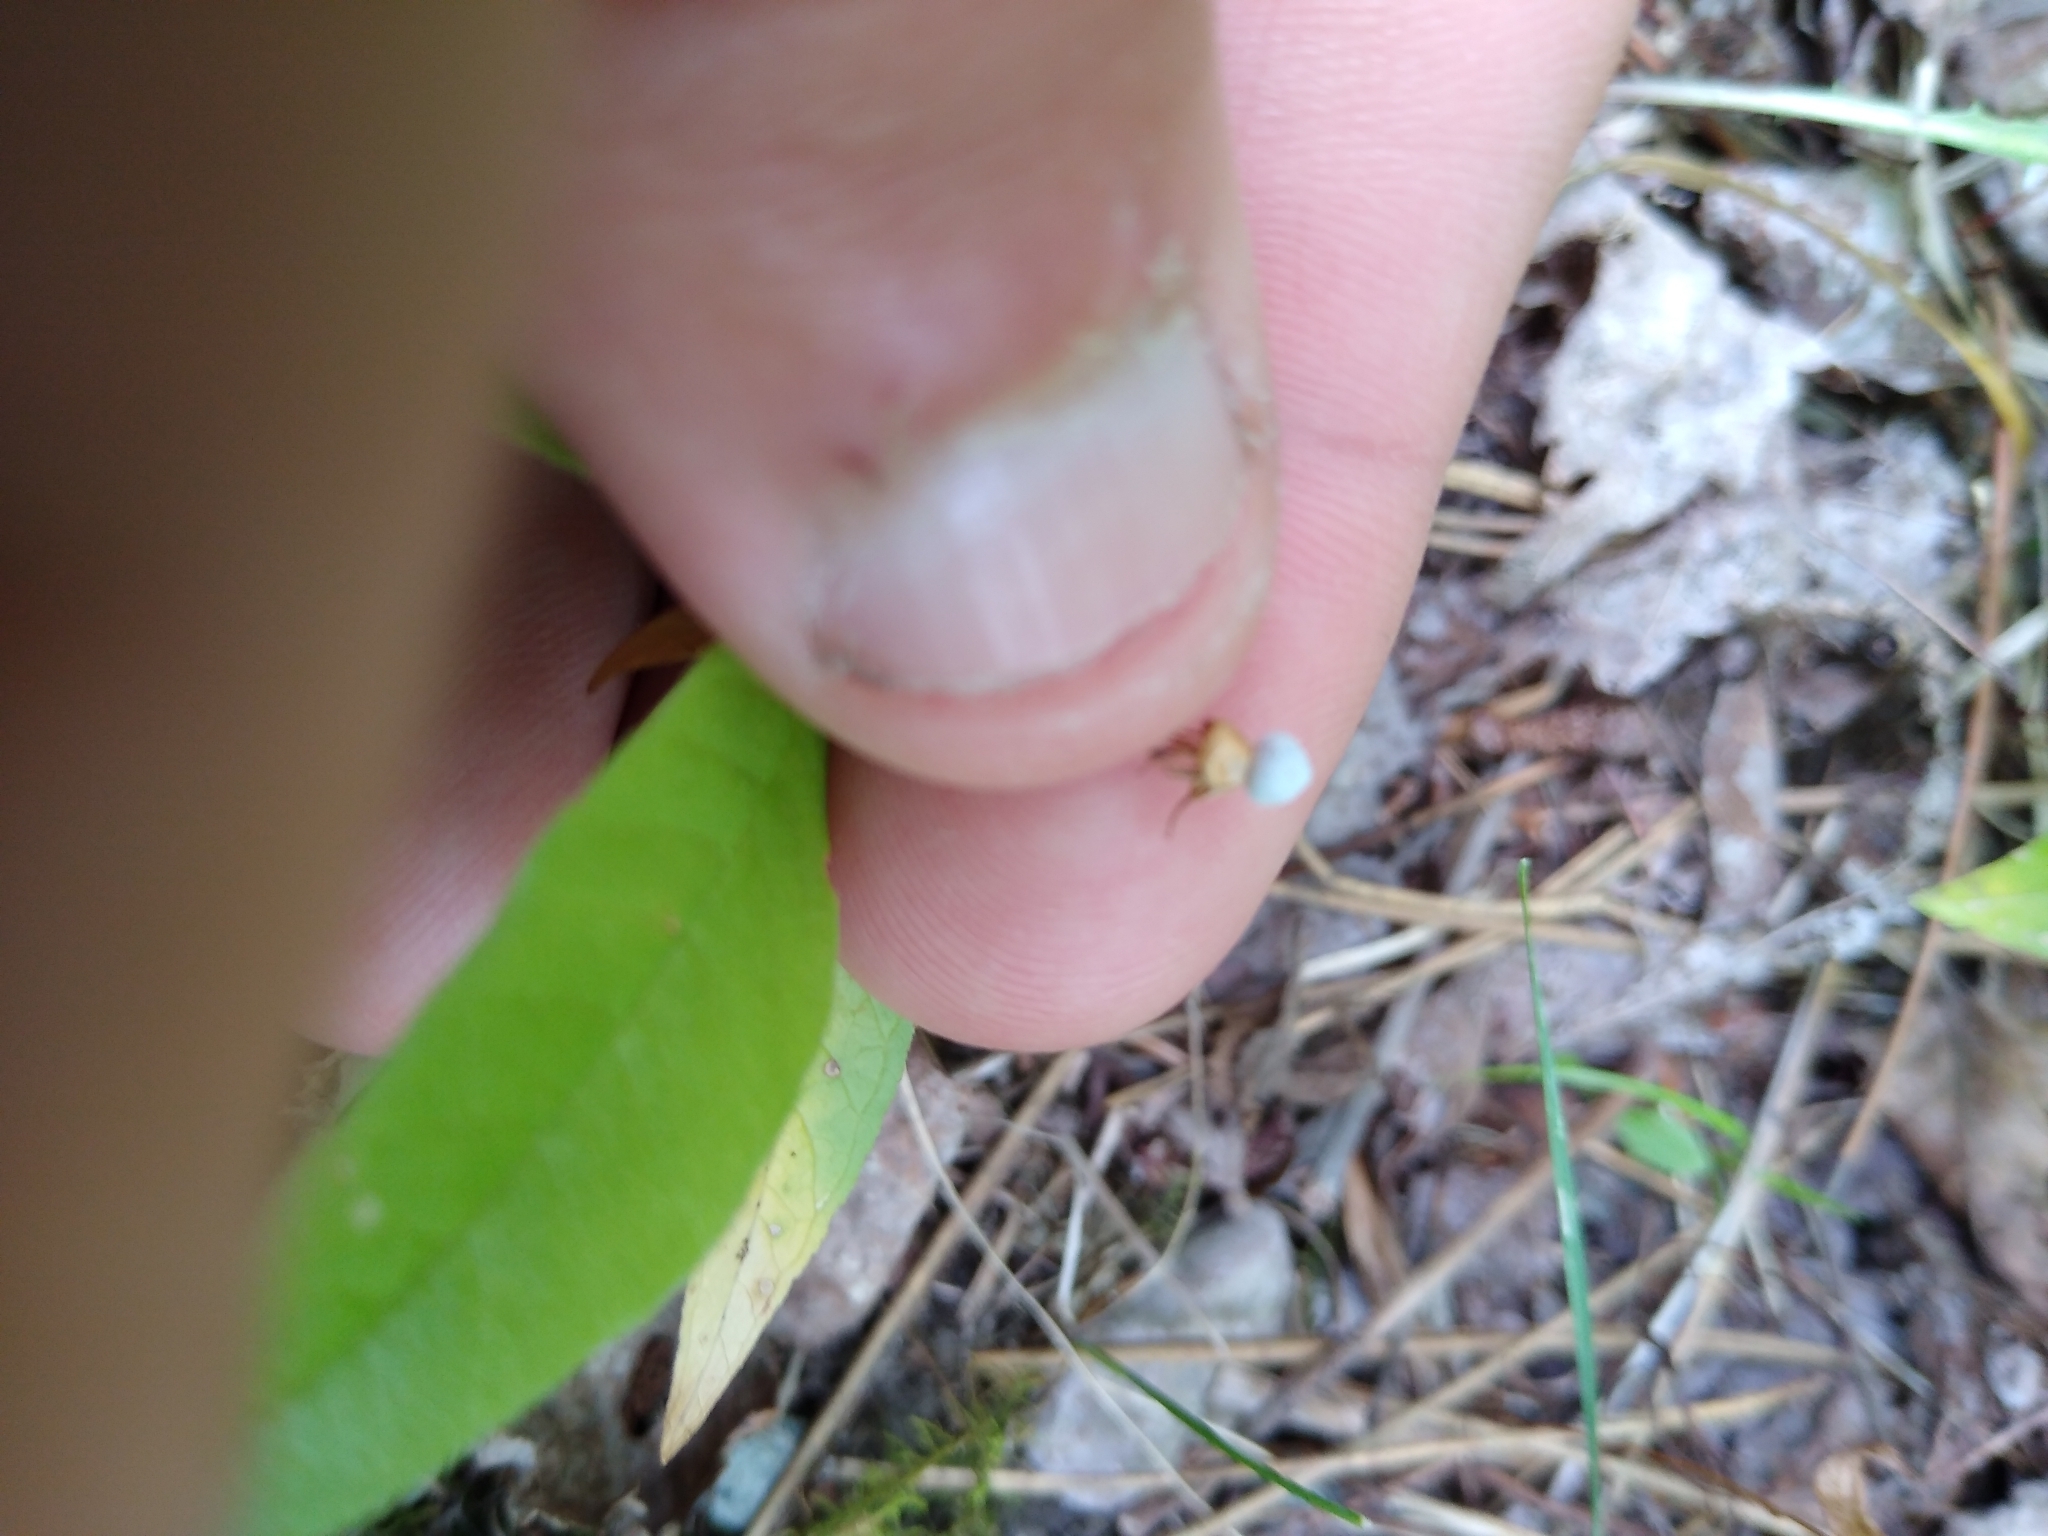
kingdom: Plantae
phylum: Tracheophyta
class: Magnoliopsida
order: Ericales
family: Primulaceae
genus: Lysimachia
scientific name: Lysimachia borealis
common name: American starflower
